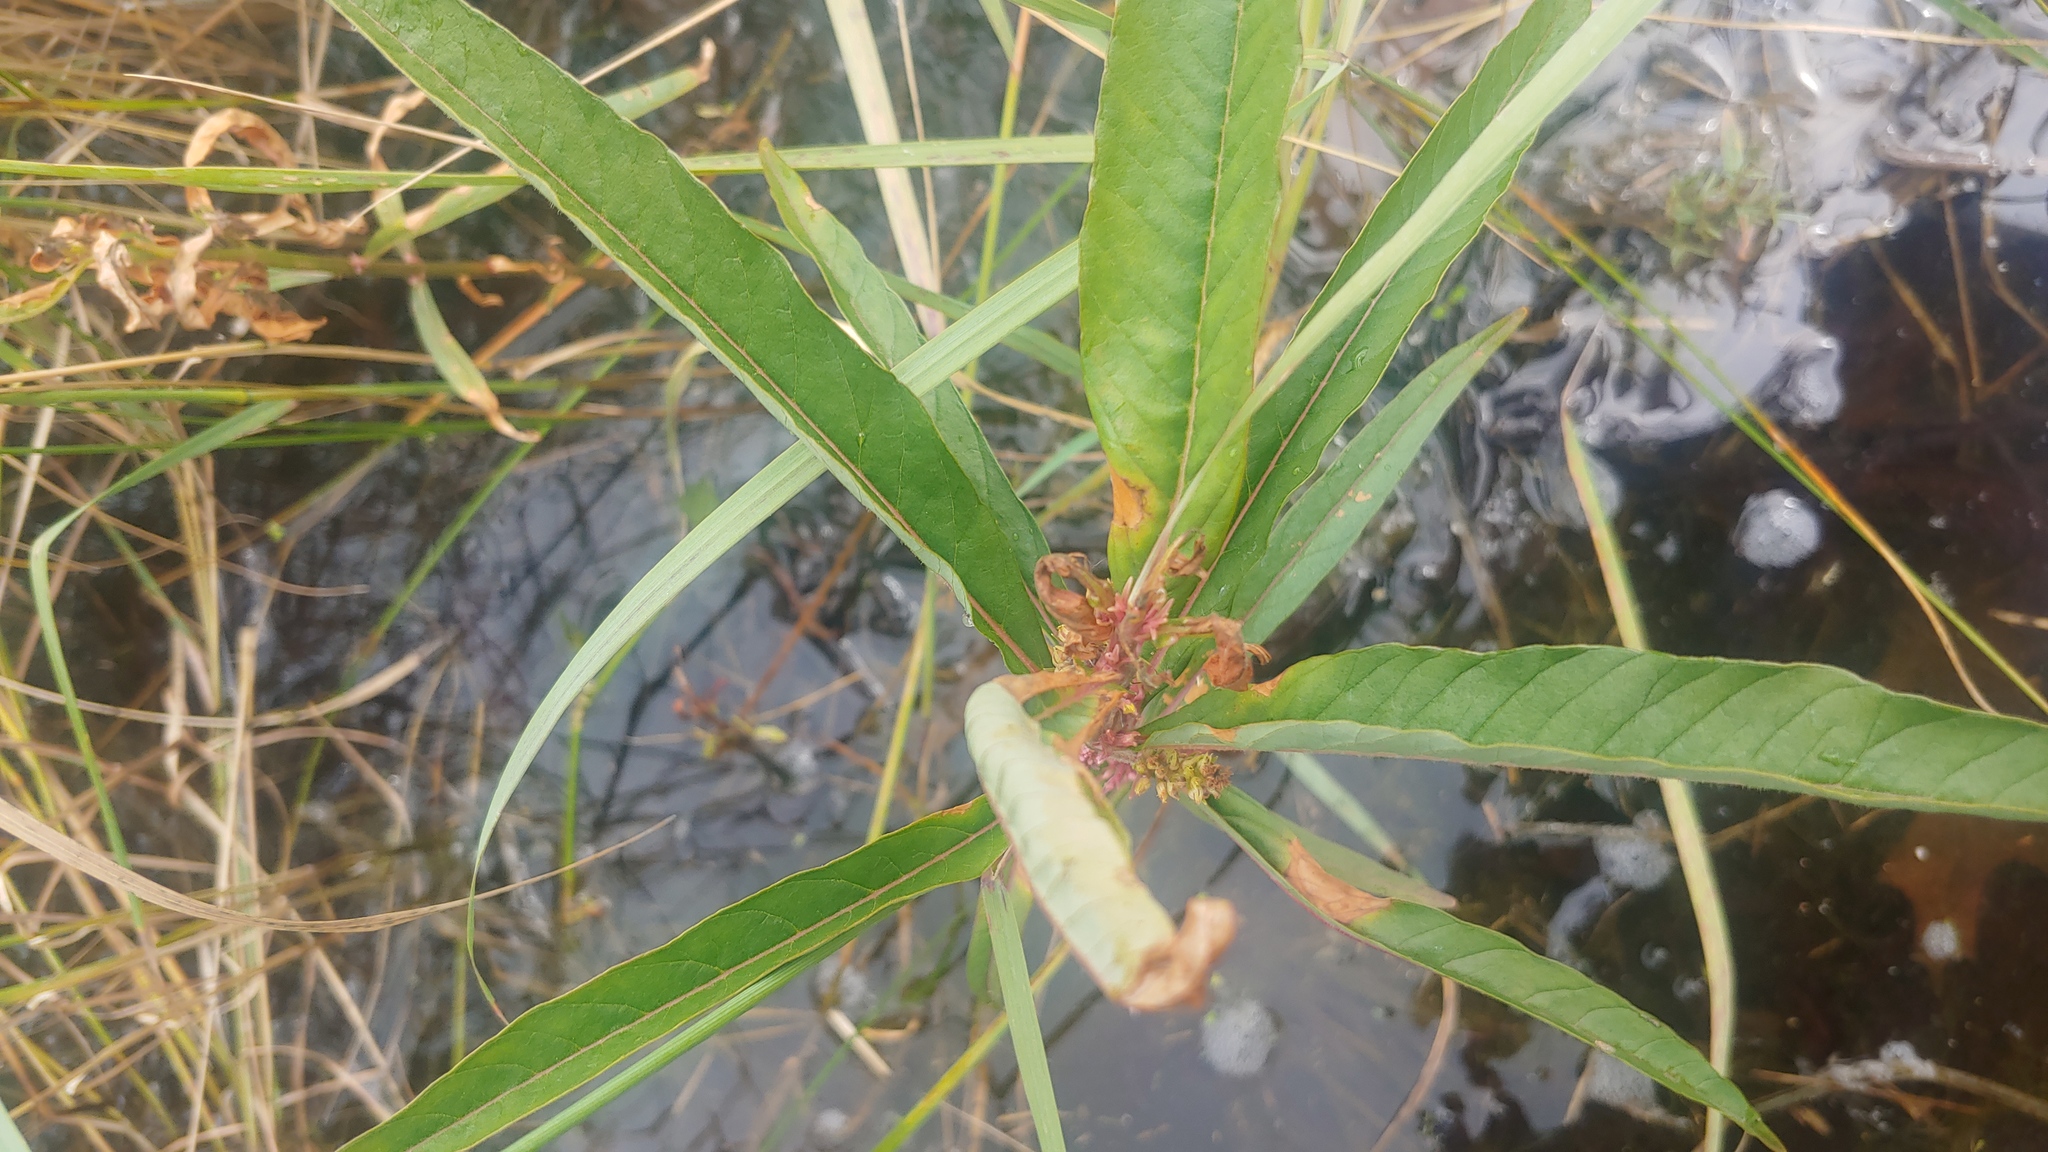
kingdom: Plantae
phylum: Tracheophyta
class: Magnoliopsida
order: Ericales
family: Primulaceae
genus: Lysimachia
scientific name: Lysimachia thyrsiflora
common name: Tufted loosestrife
